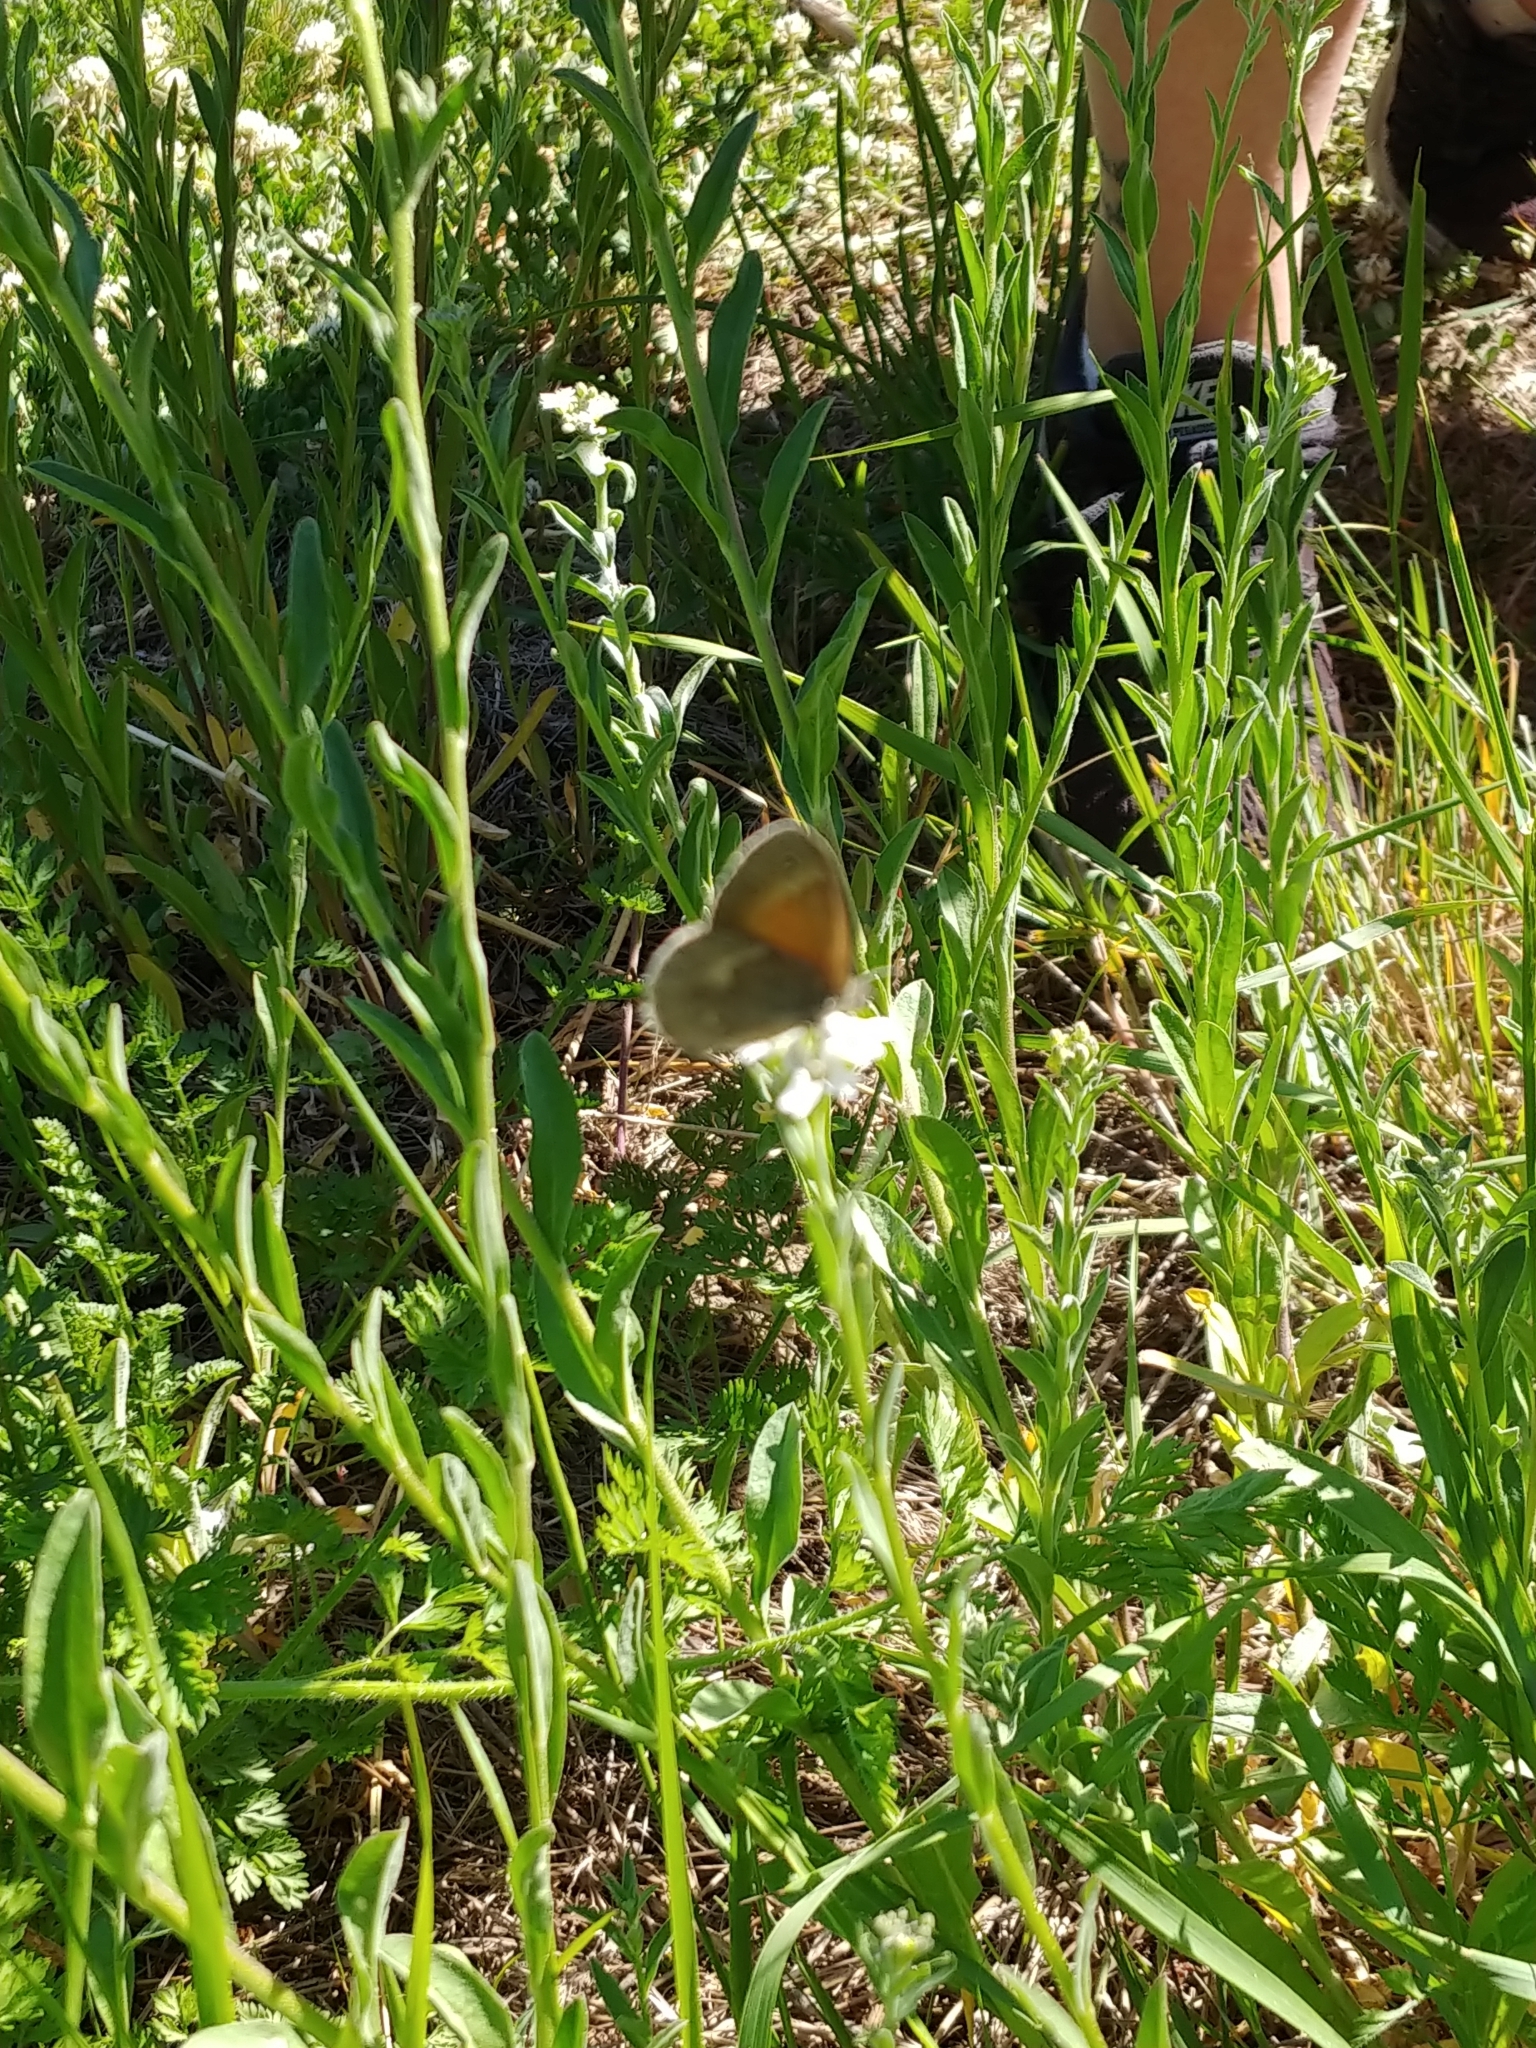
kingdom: Animalia
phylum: Arthropoda
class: Insecta
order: Lepidoptera
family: Nymphalidae
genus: Coenonympha
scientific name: Coenonympha california
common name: Common ringlet
